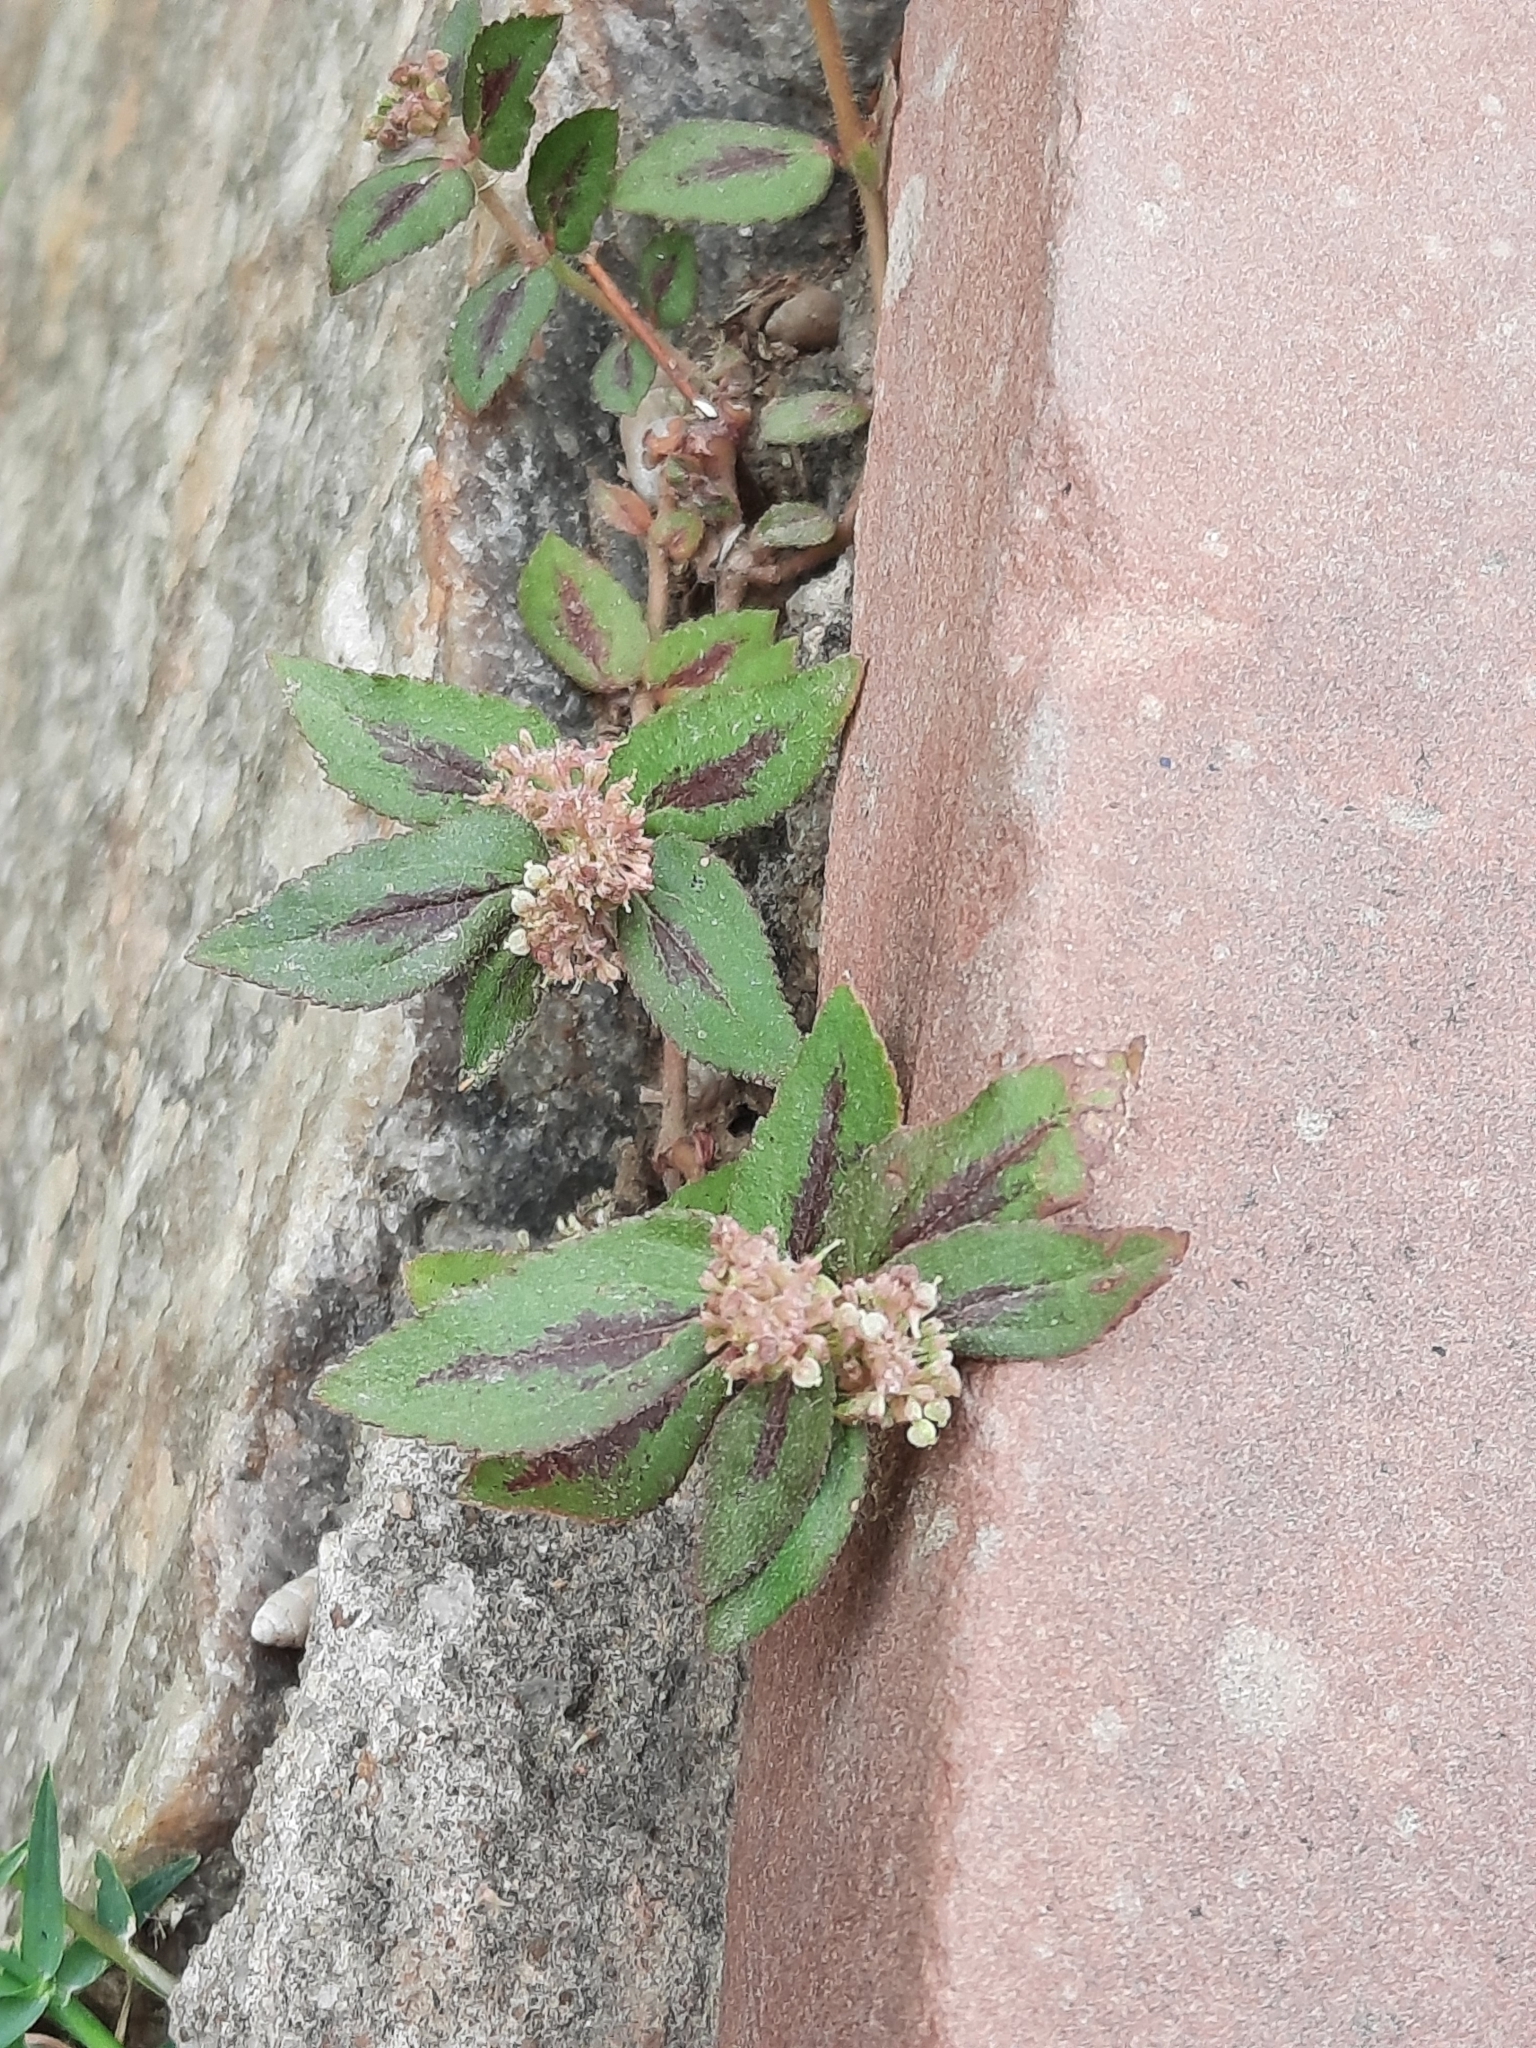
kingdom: Plantae
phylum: Tracheophyta
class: Magnoliopsida
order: Malpighiales
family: Euphorbiaceae
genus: Euphorbia
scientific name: Euphorbia hirta
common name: Pillpod sandmat
